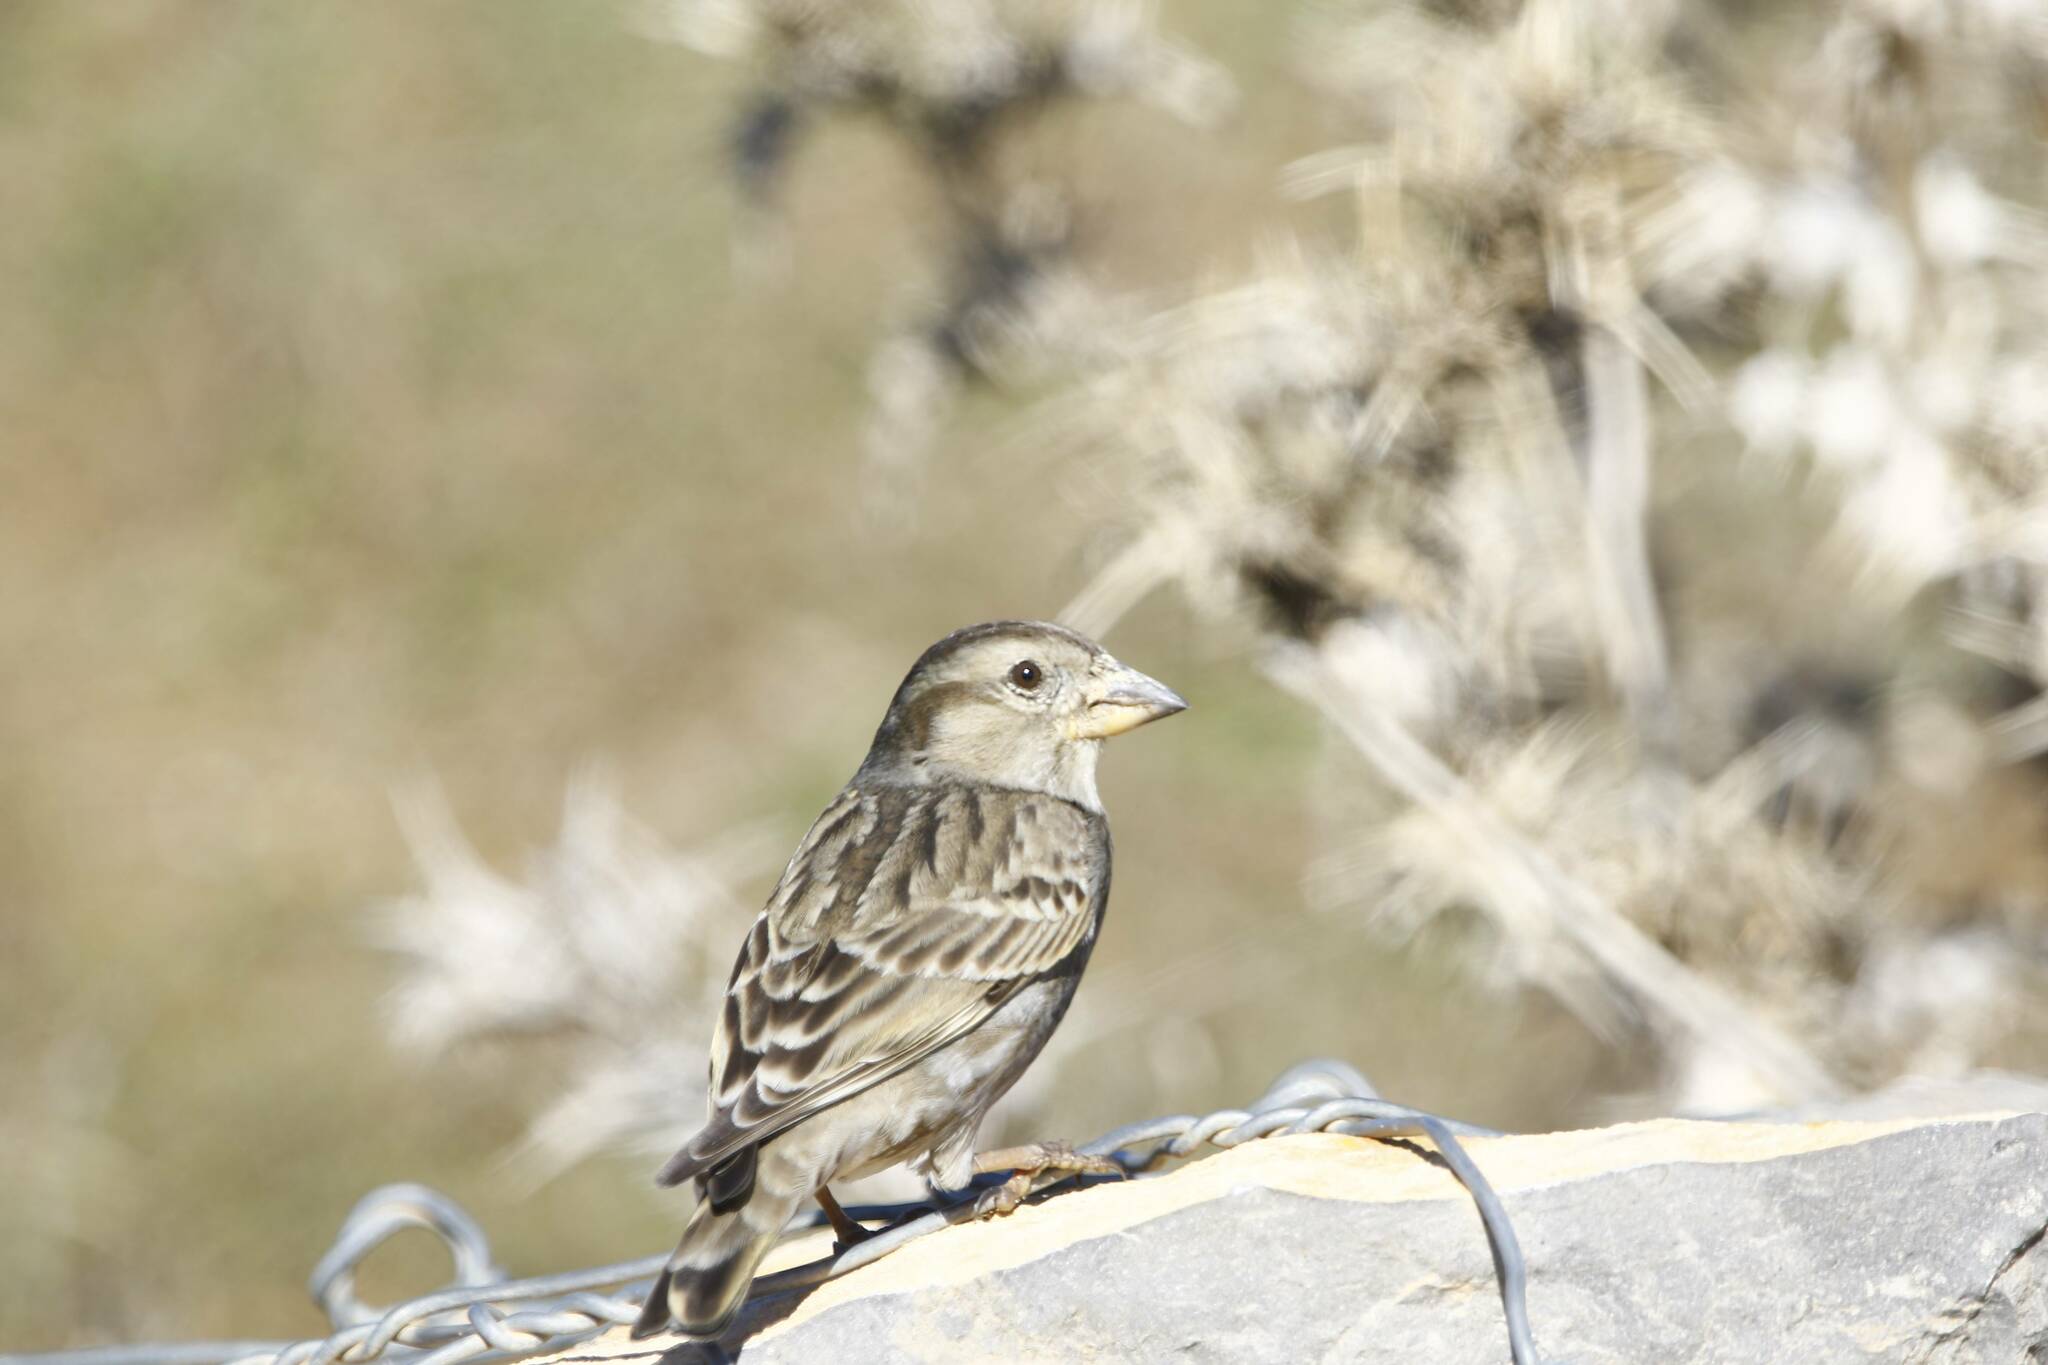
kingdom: Animalia
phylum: Chordata
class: Aves
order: Passeriformes
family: Passeridae
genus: Petronia
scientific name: Petronia petronia
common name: Rock sparrow
